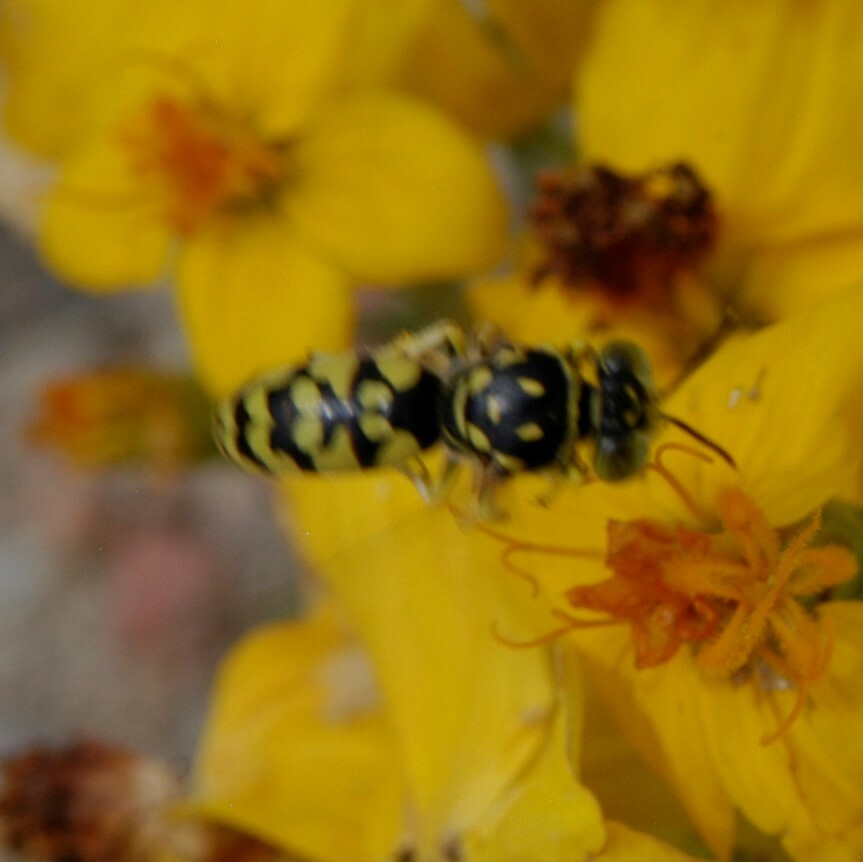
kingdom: Animalia
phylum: Arthropoda
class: Insecta
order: Hymenoptera
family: Crabronidae
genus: Steniolia
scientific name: Steniolia
